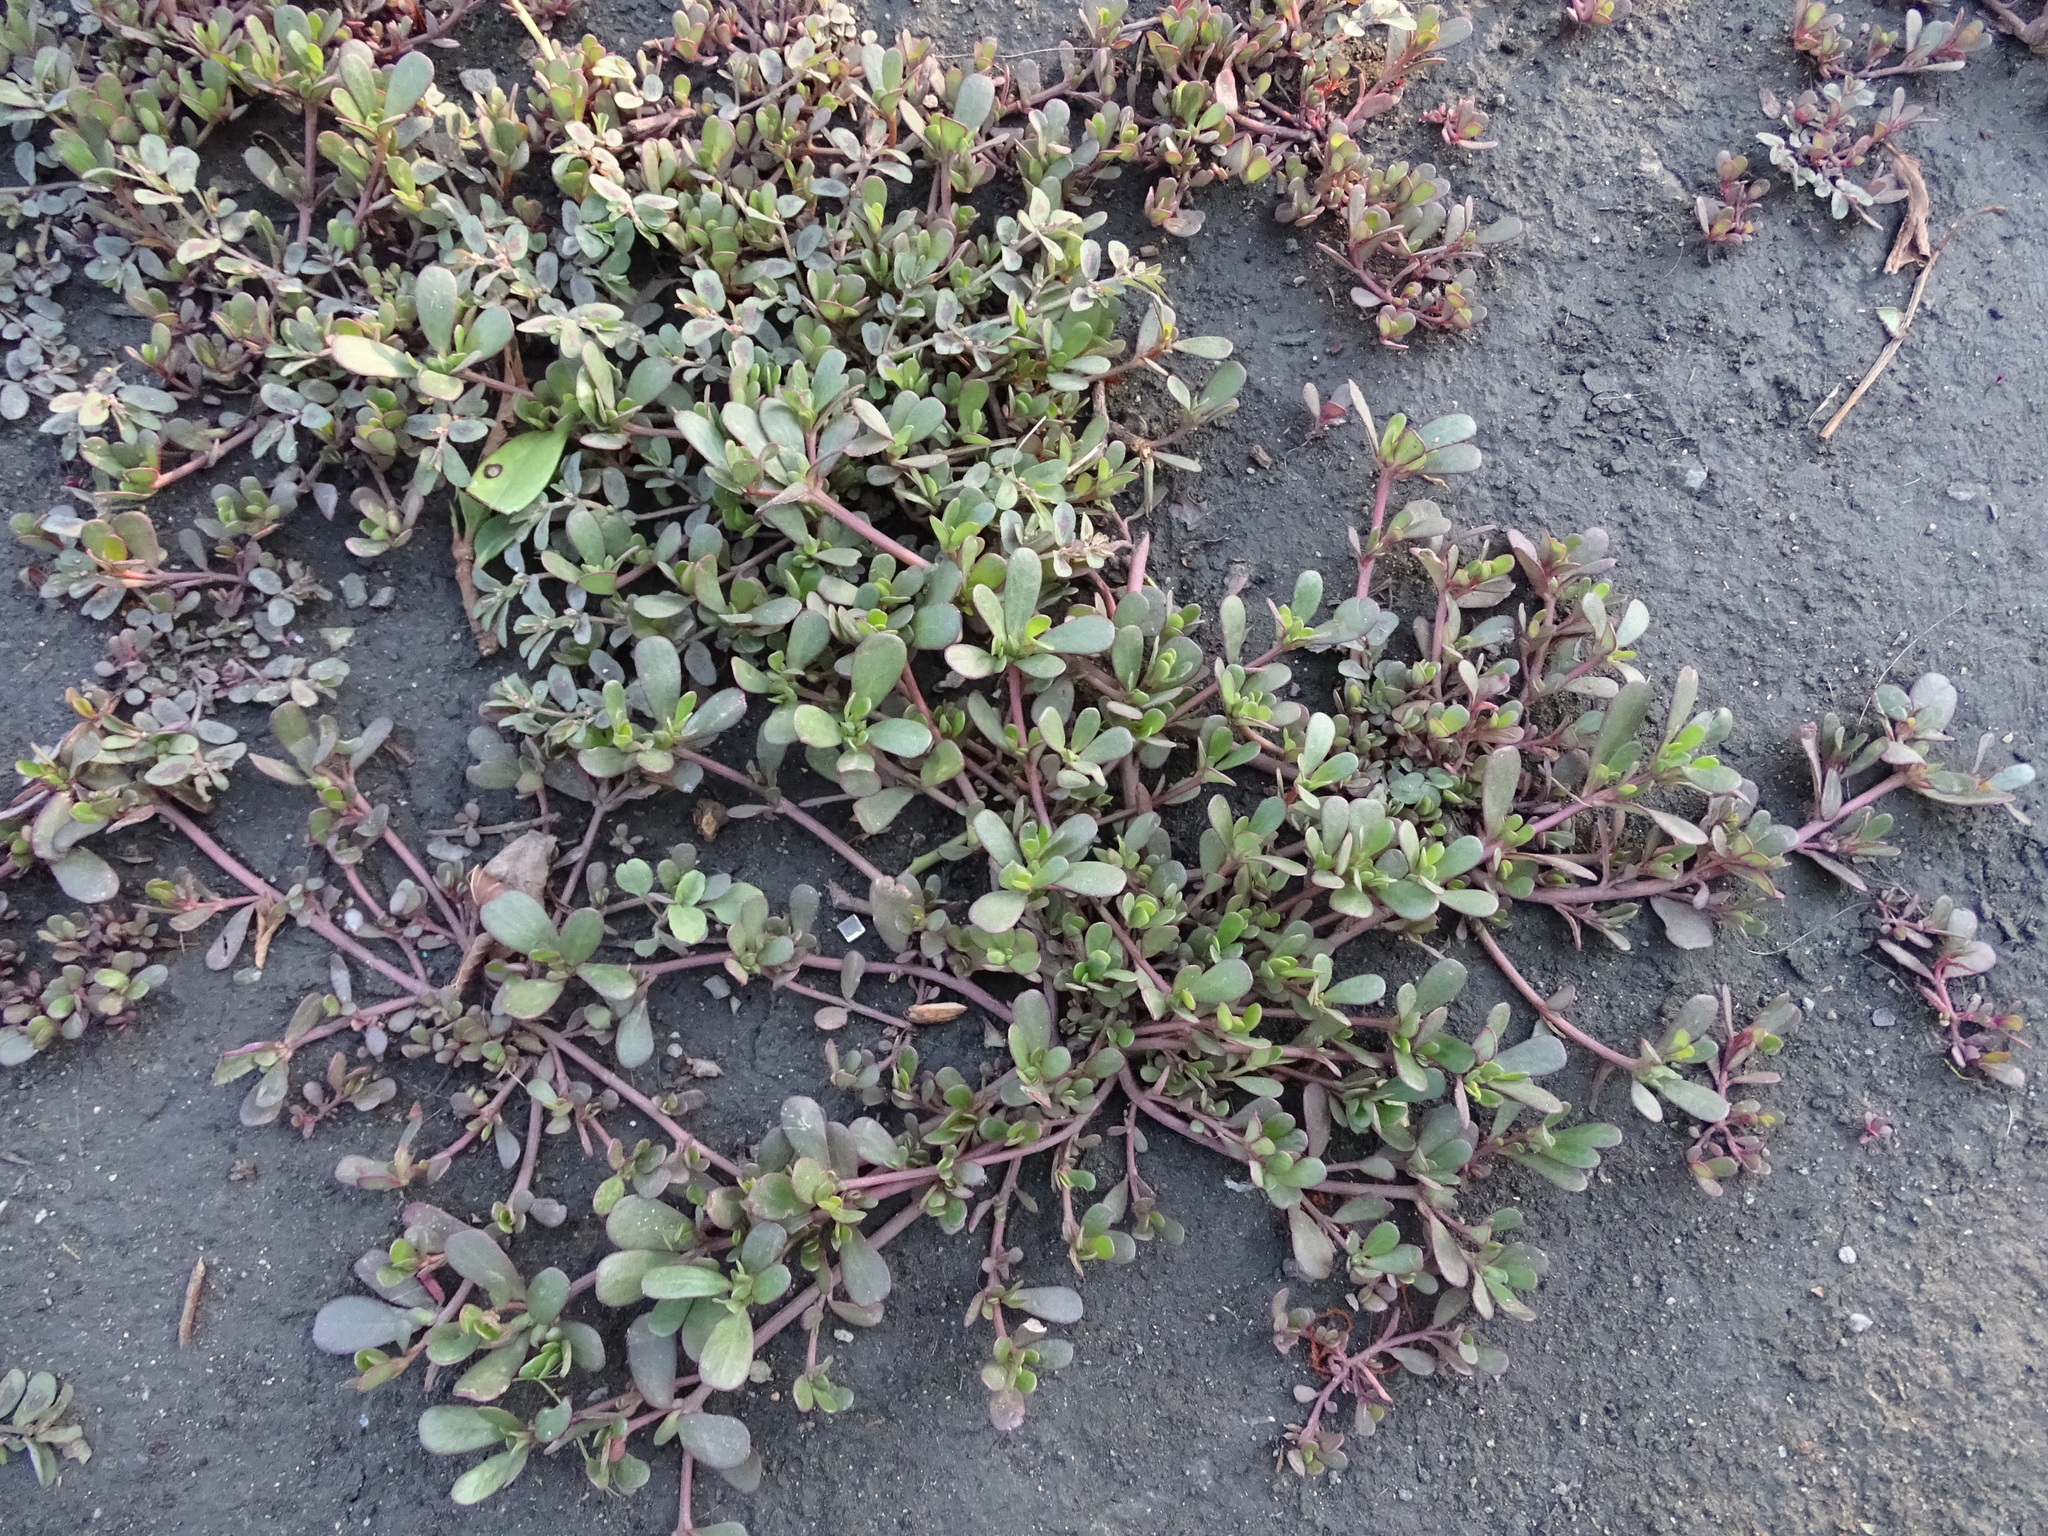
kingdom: Plantae
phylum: Tracheophyta
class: Magnoliopsida
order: Caryophyllales
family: Portulacaceae
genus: Portulaca
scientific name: Portulaca oleracea
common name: Common purslane
